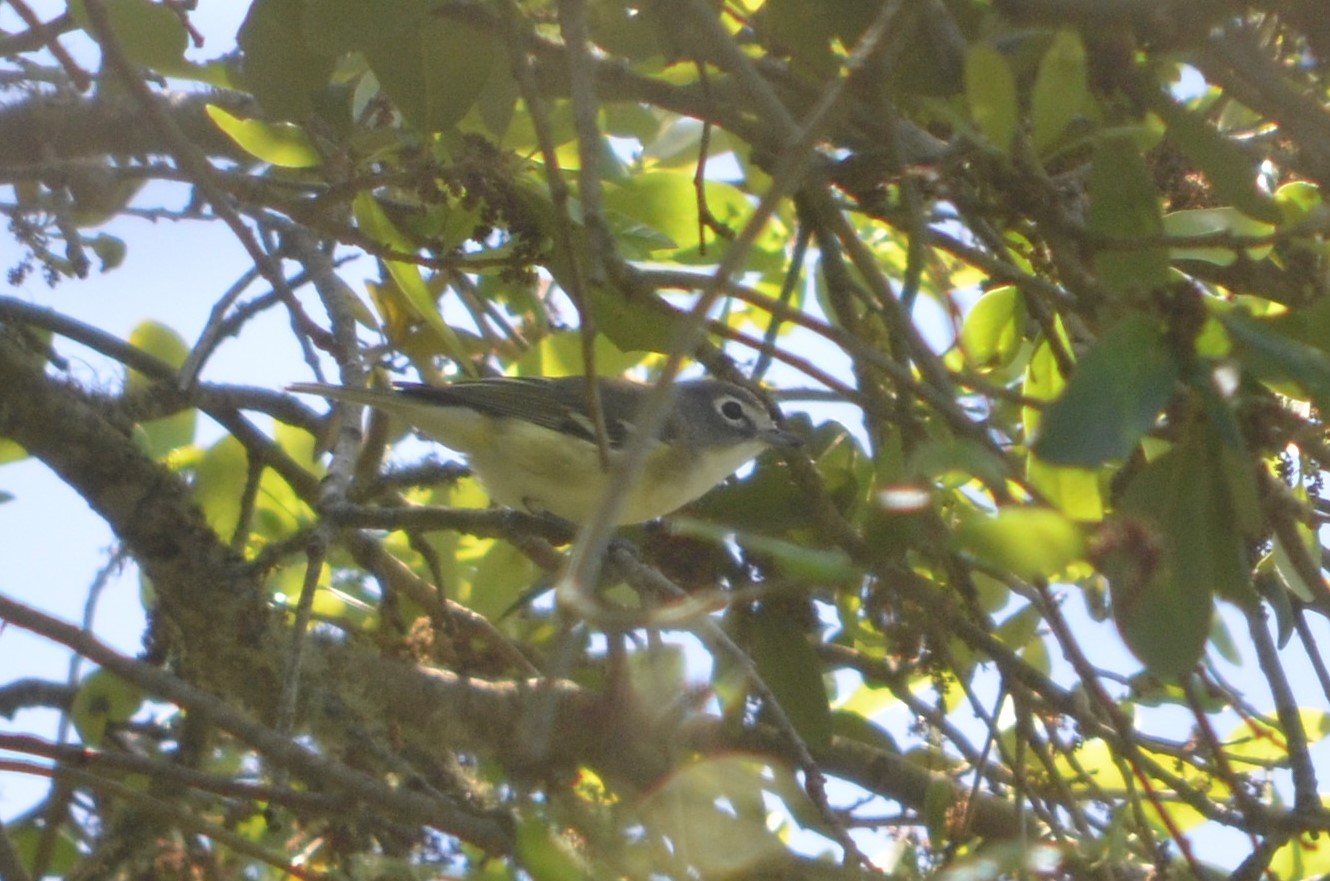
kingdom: Animalia
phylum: Chordata
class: Aves
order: Passeriformes
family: Vireonidae
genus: Vireo
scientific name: Vireo solitarius
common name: Blue-headed vireo
